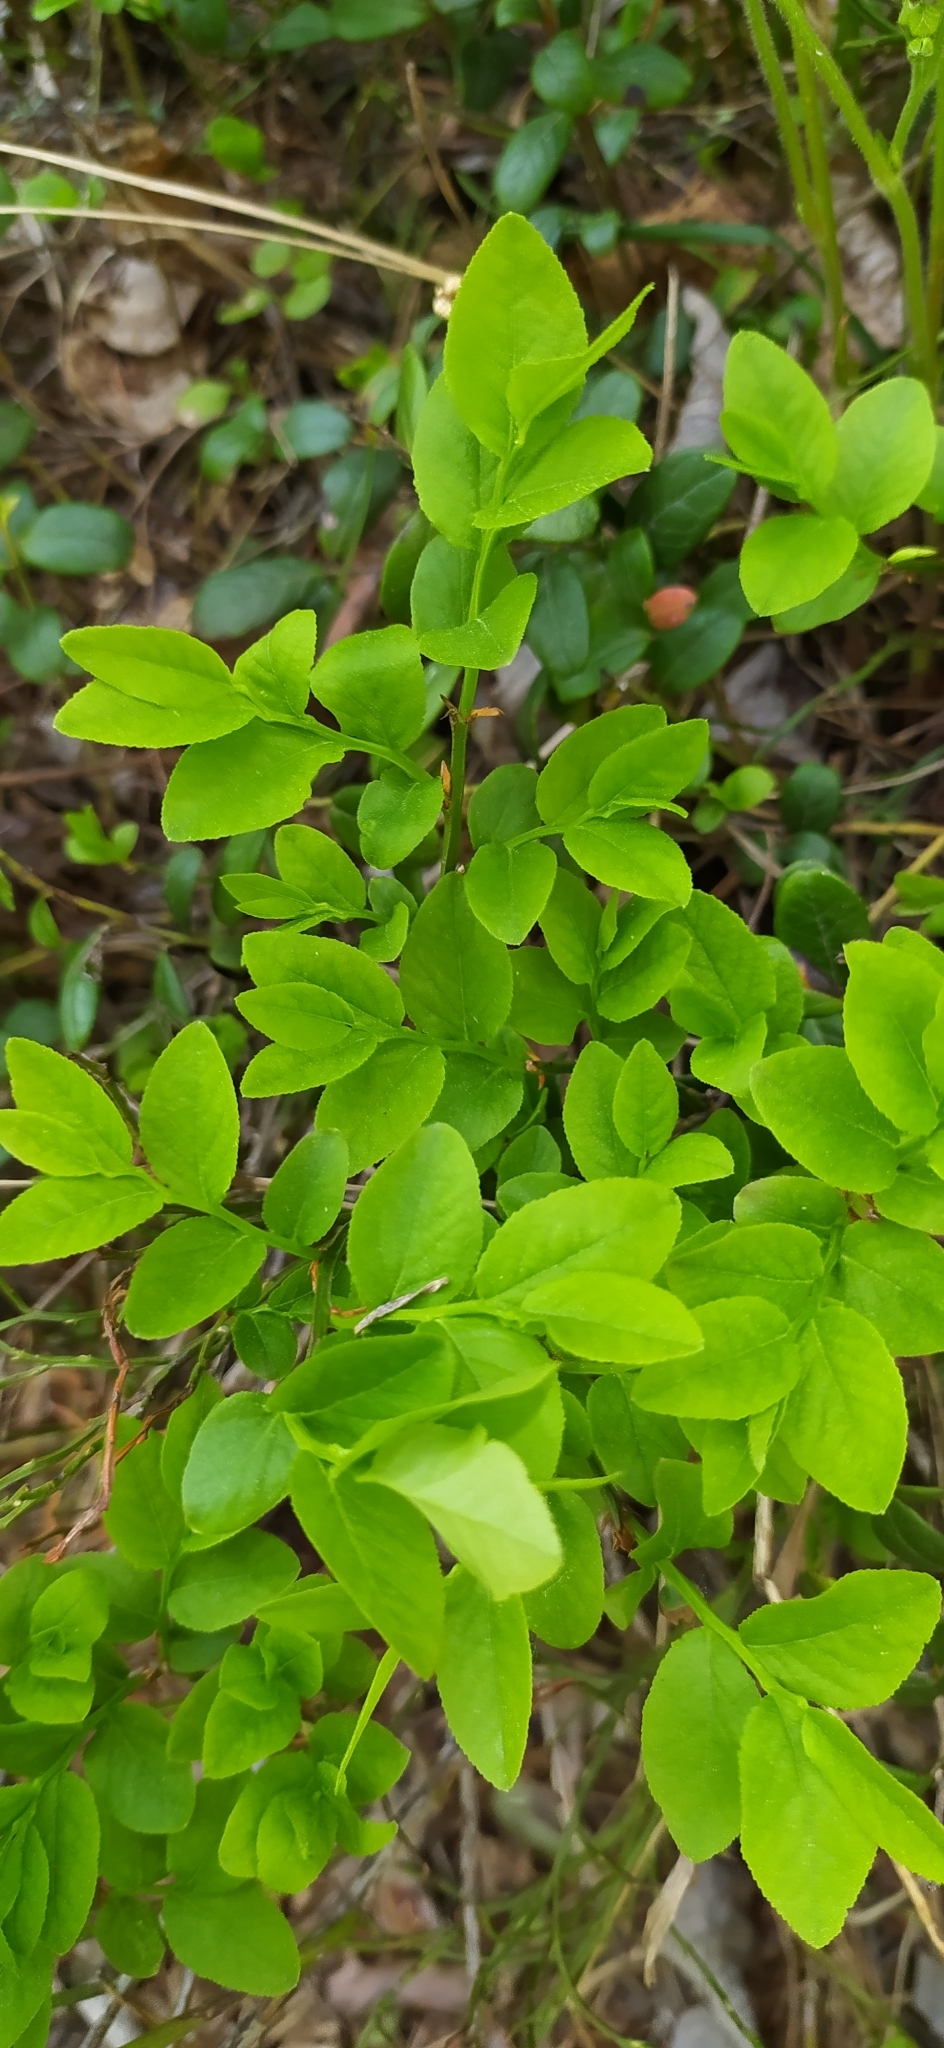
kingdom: Plantae
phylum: Tracheophyta
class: Magnoliopsida
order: Ericales
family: Ericaceae
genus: Vaccinium
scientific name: Vaccinium myrtillus
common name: Bilberry
